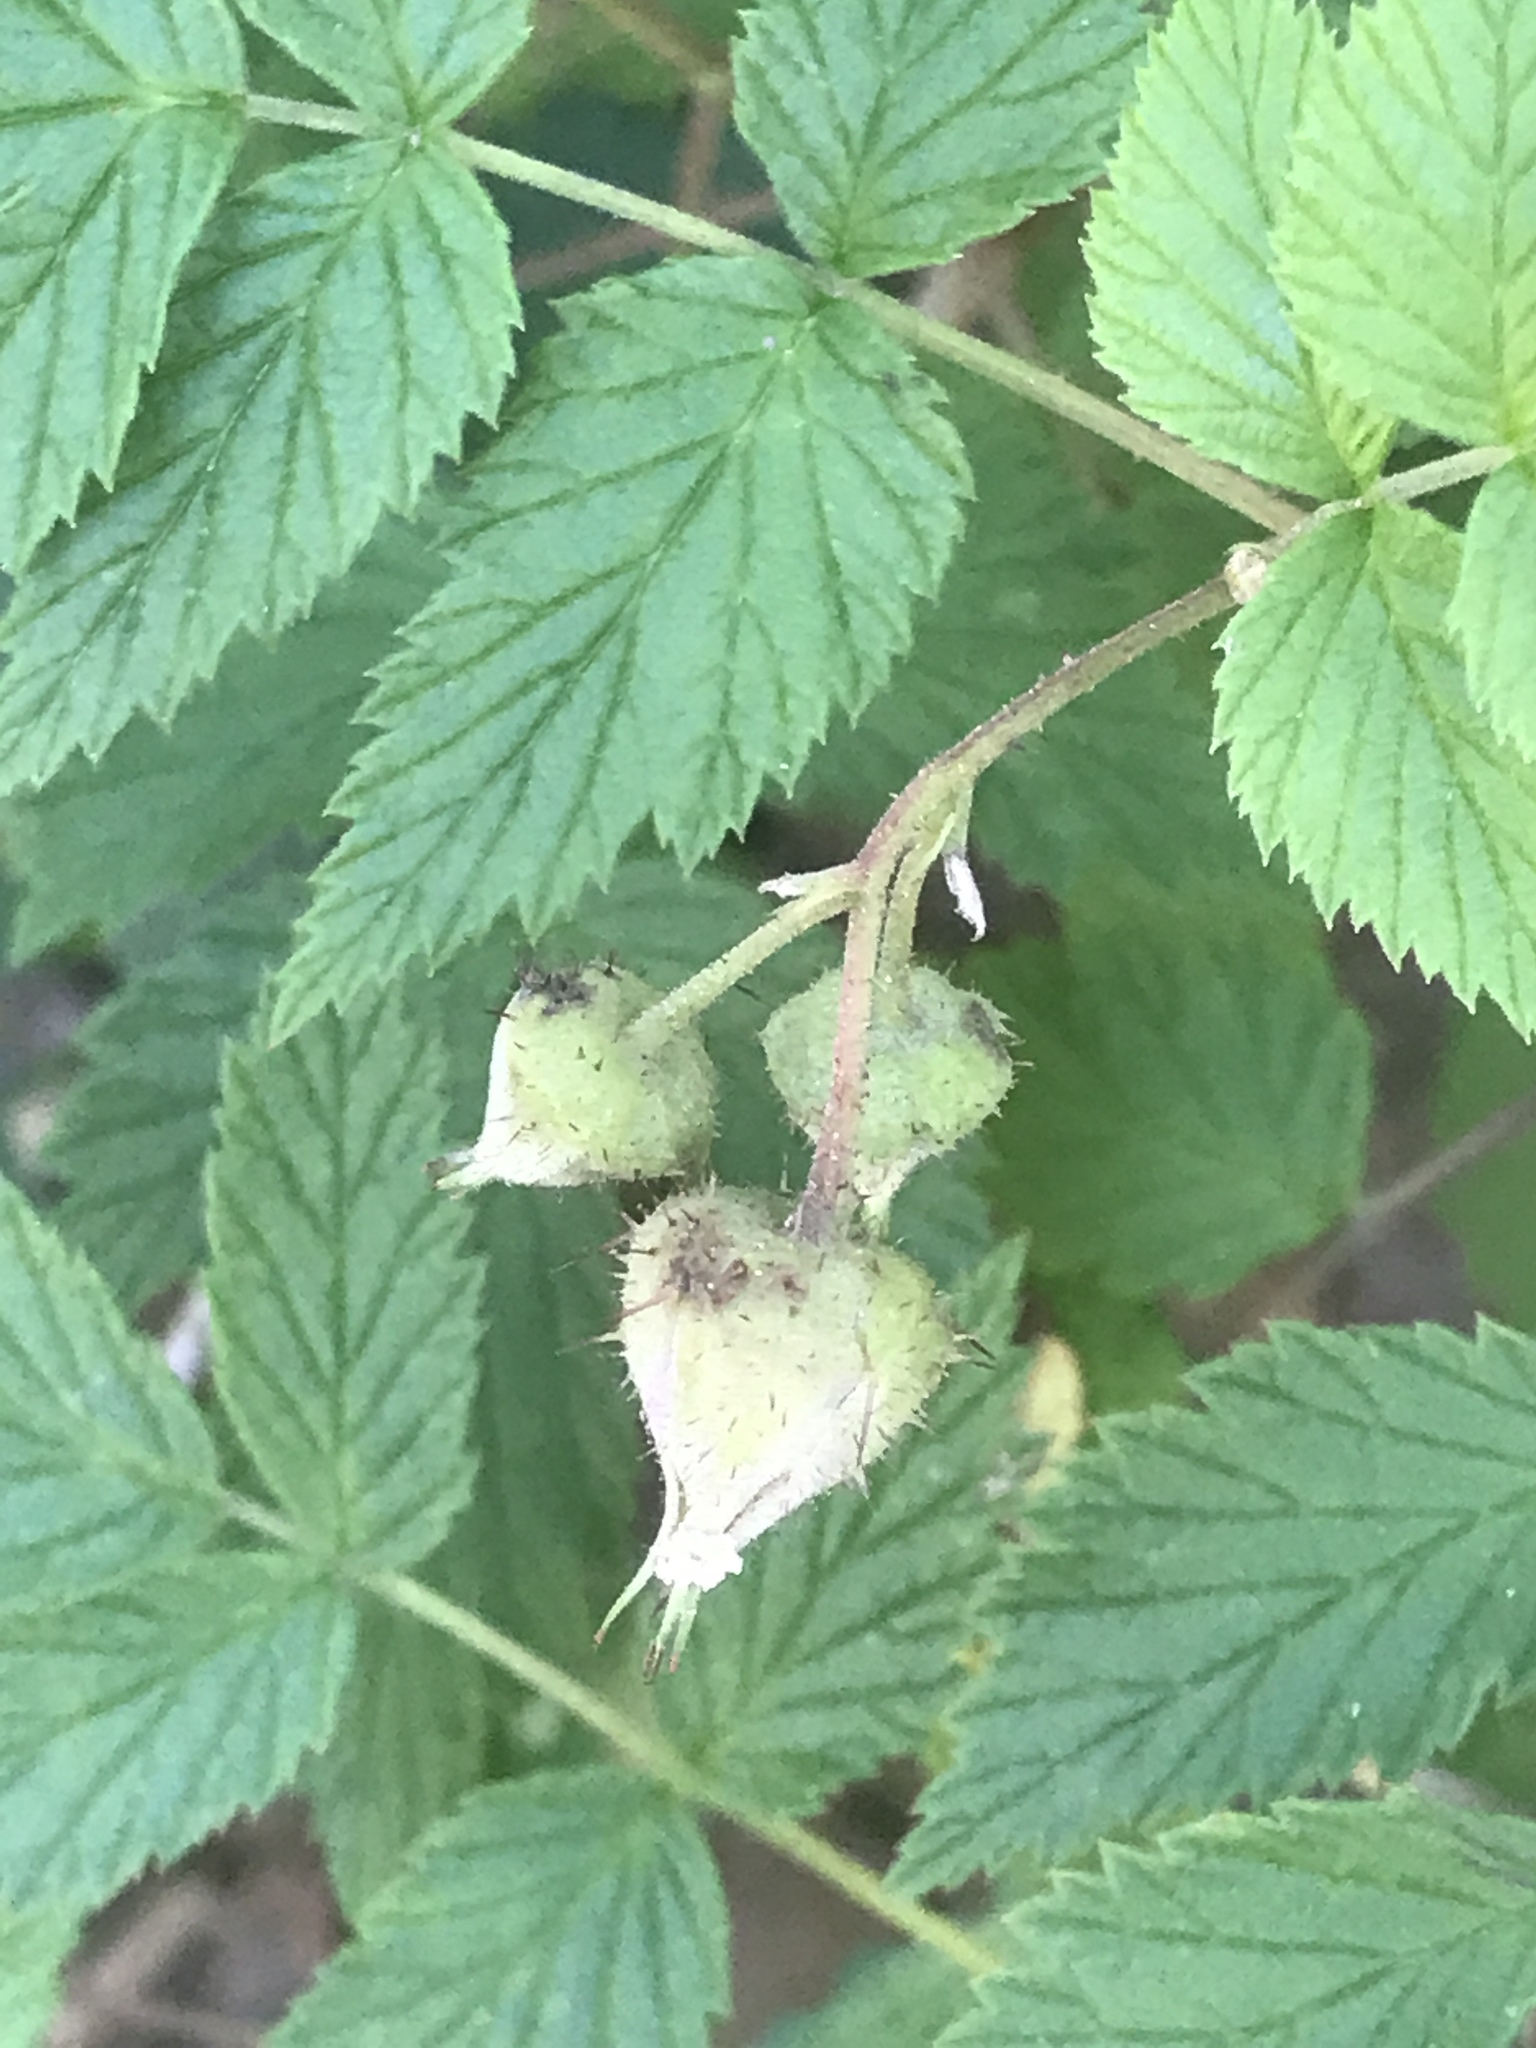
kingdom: Plantae
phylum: Tracheophyta
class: Magnoliopsida
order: Rosales
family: Rosaceae
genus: Rubus
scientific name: Rubus idaeus
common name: Raspberry
